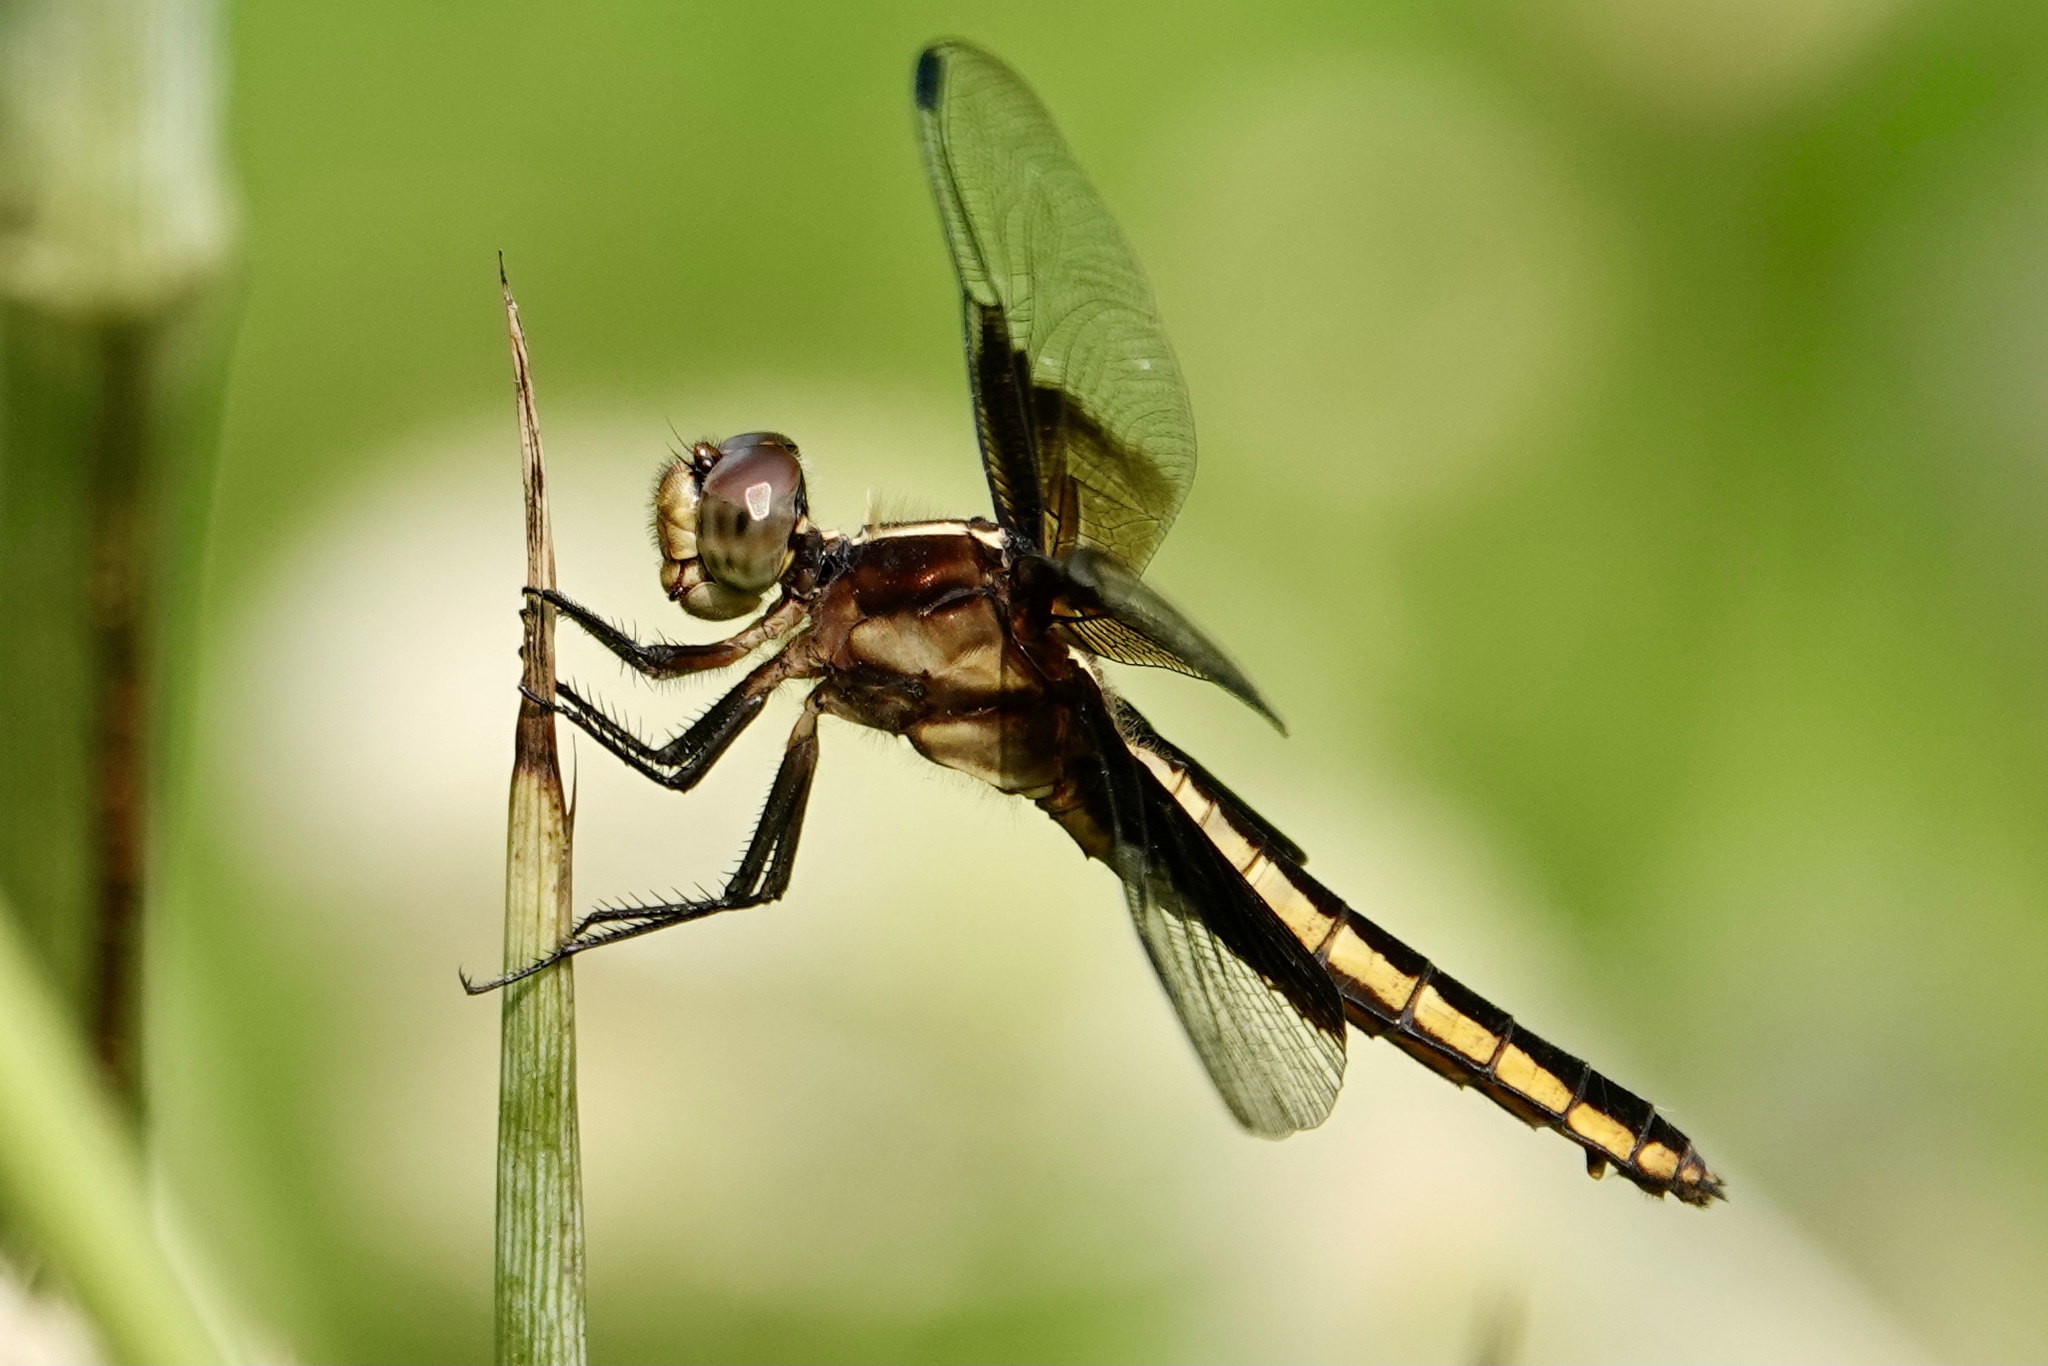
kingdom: Animalia
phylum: Arthropoda
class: Insecta
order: Odonata
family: Libellulidae
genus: Libellula
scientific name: Libellula luctuosa
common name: Widow skimmer
